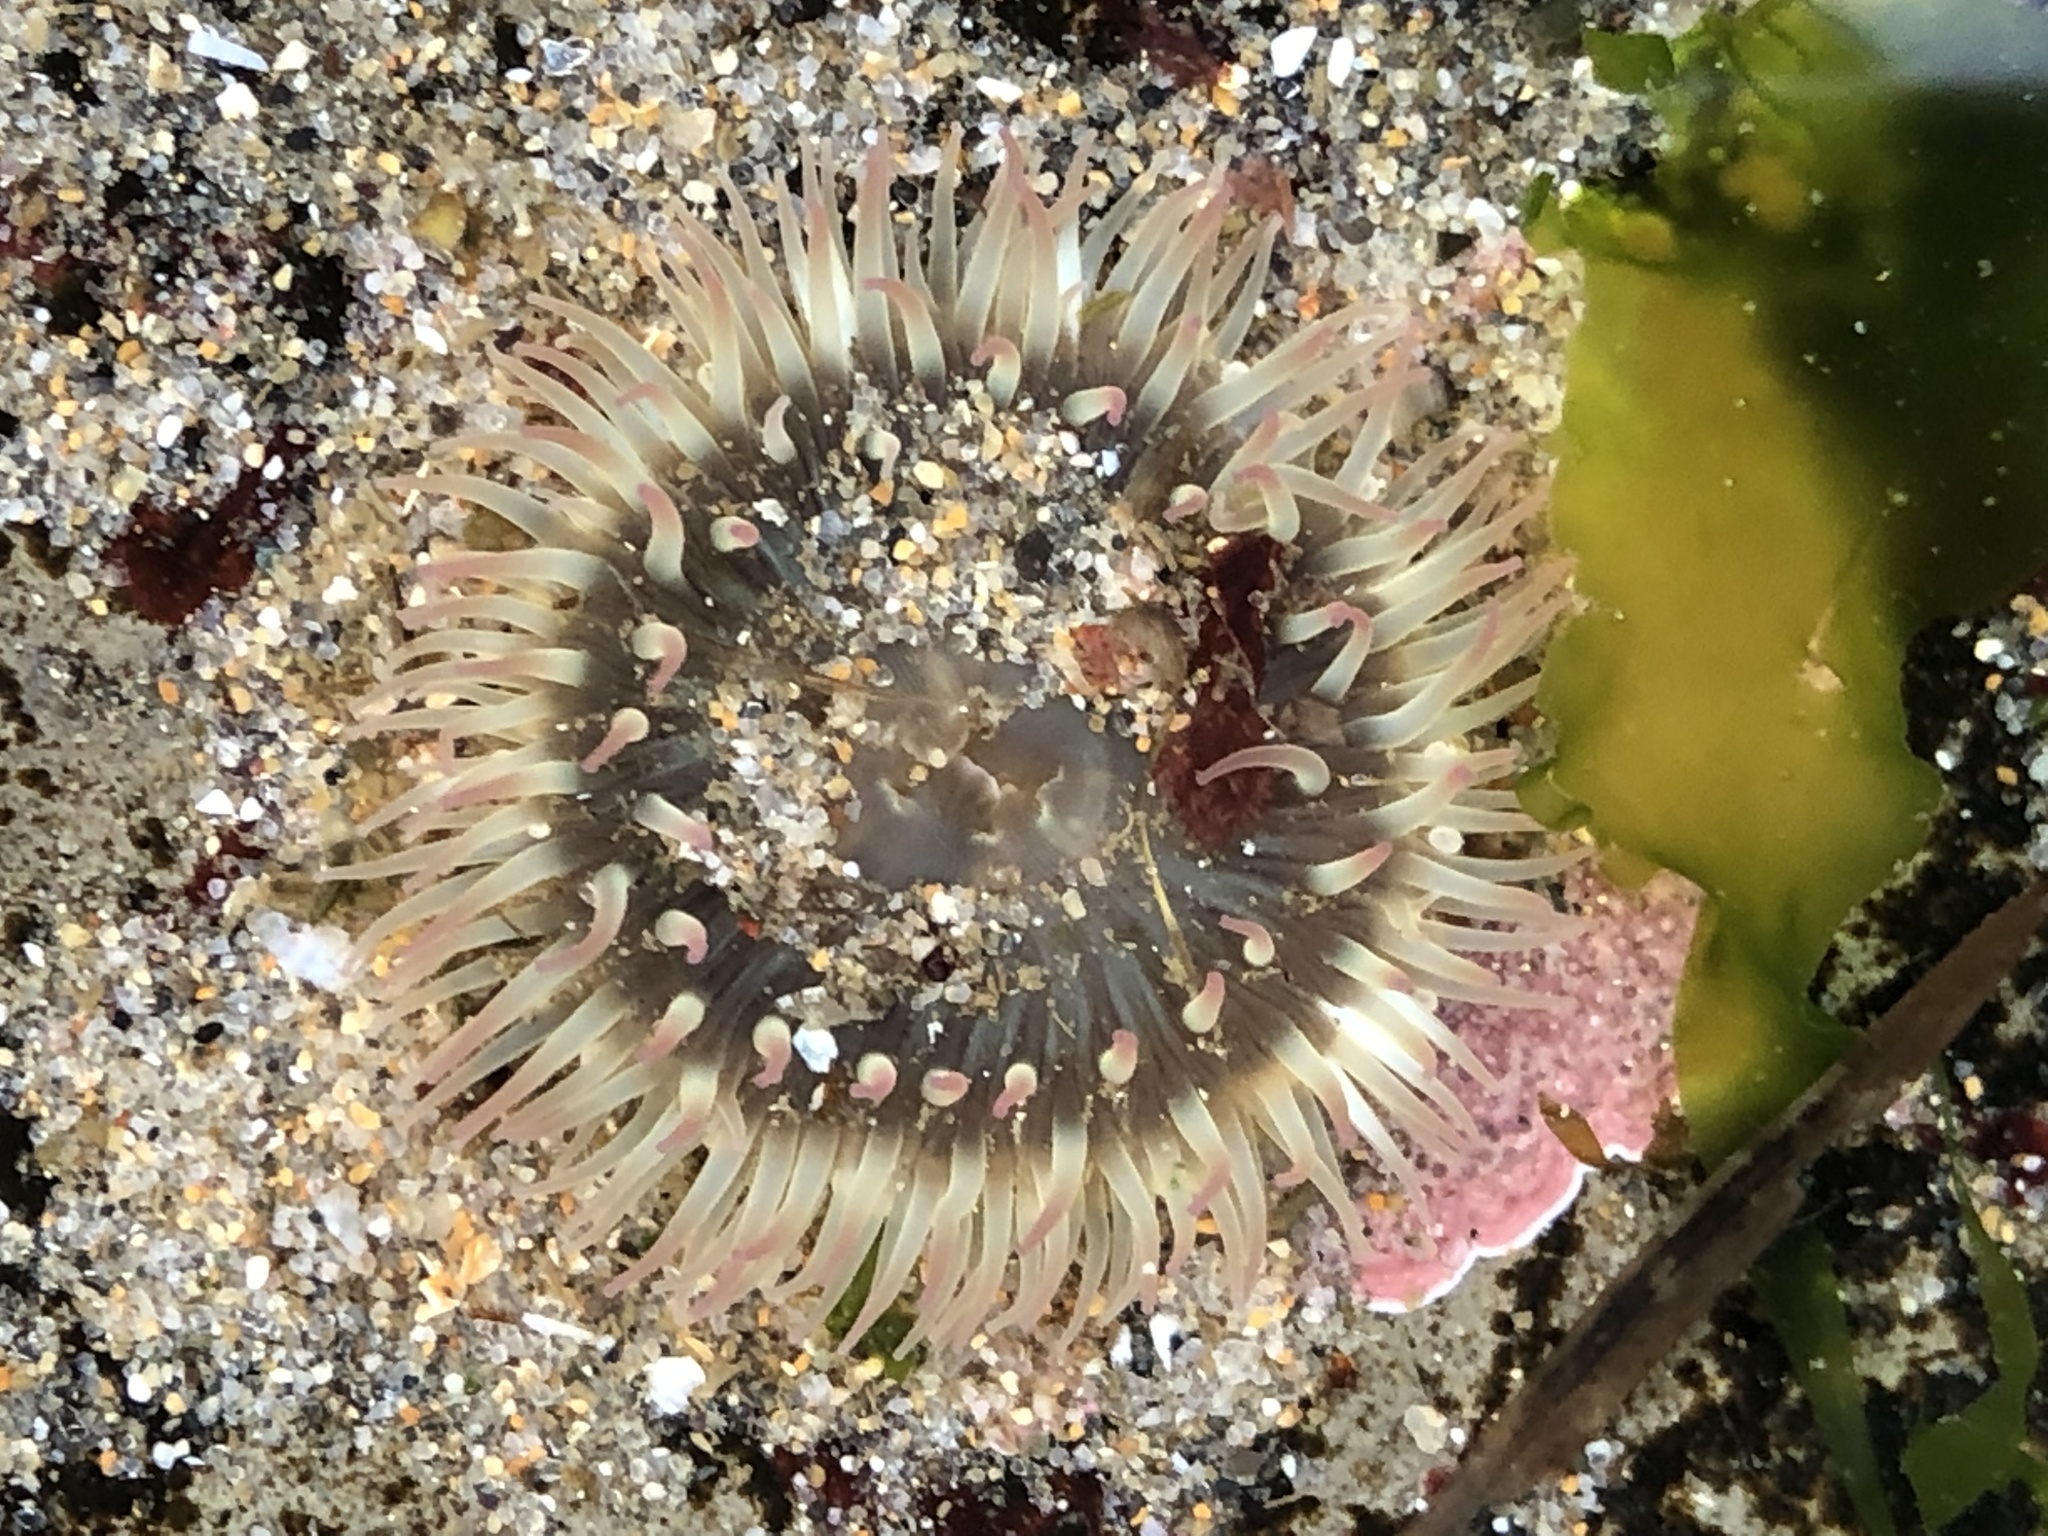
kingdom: Animalia
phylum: Cnidaria
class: Anthozoa
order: Actiniaria
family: Actiniidae
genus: Anthopleura
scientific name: Anthopleura elegantissima
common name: Clonal anemone
